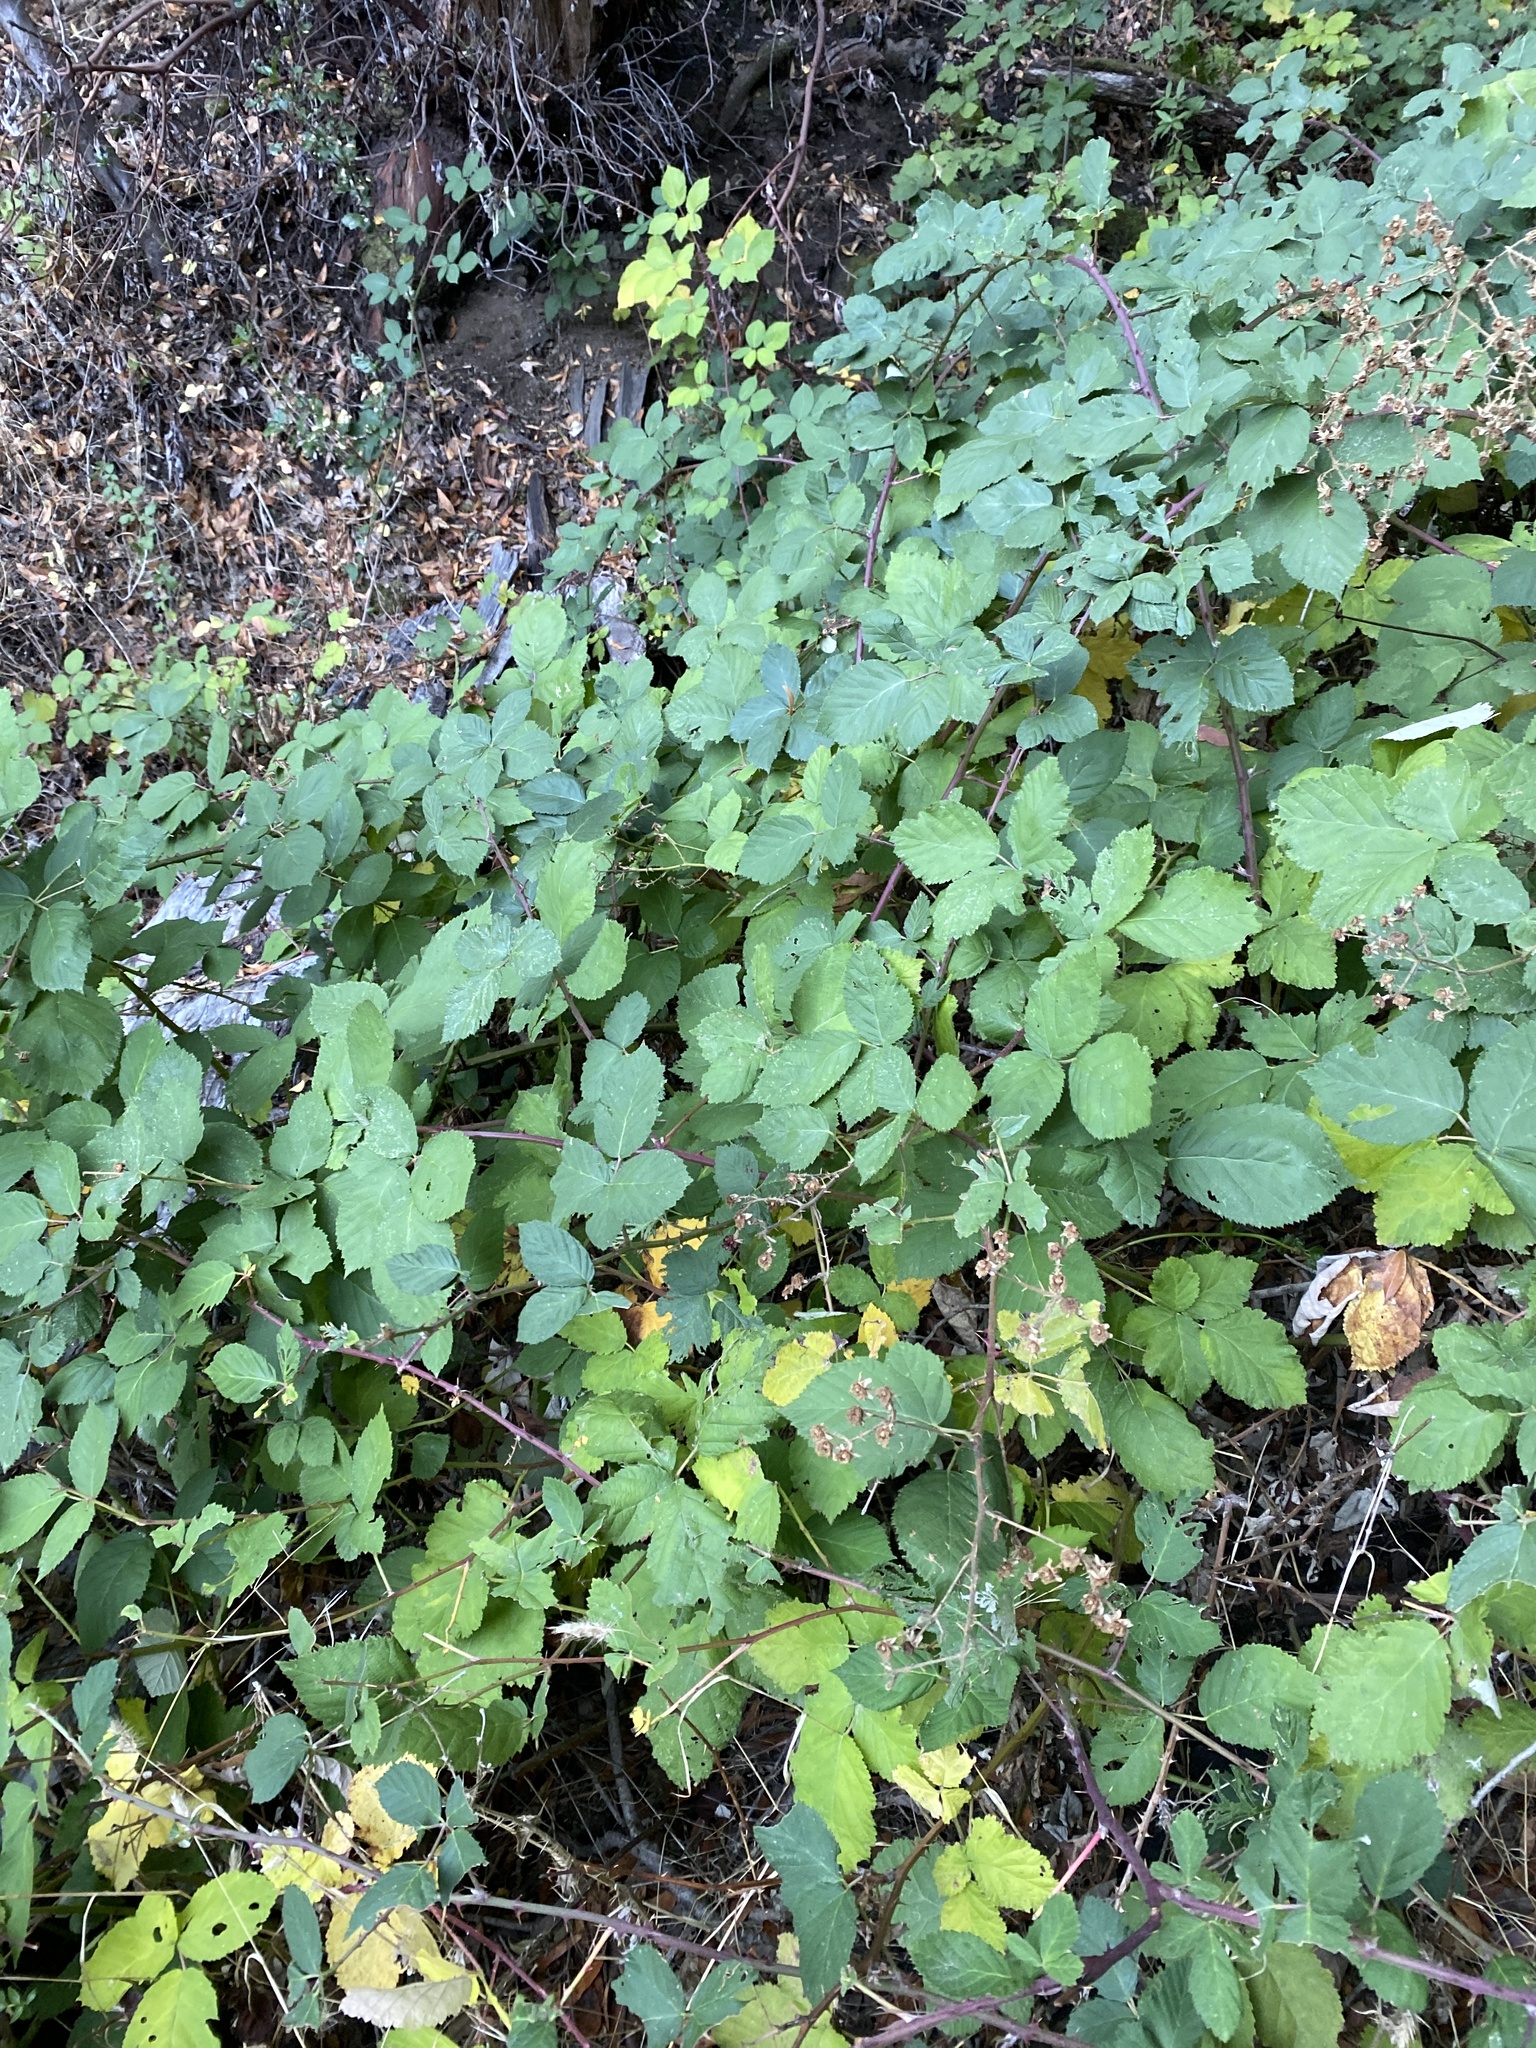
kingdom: Plantae
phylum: Tracheophyta
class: Magnoliopsida
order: Rosales
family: Rosaceae
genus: Rubus
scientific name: Rubus bifrons
